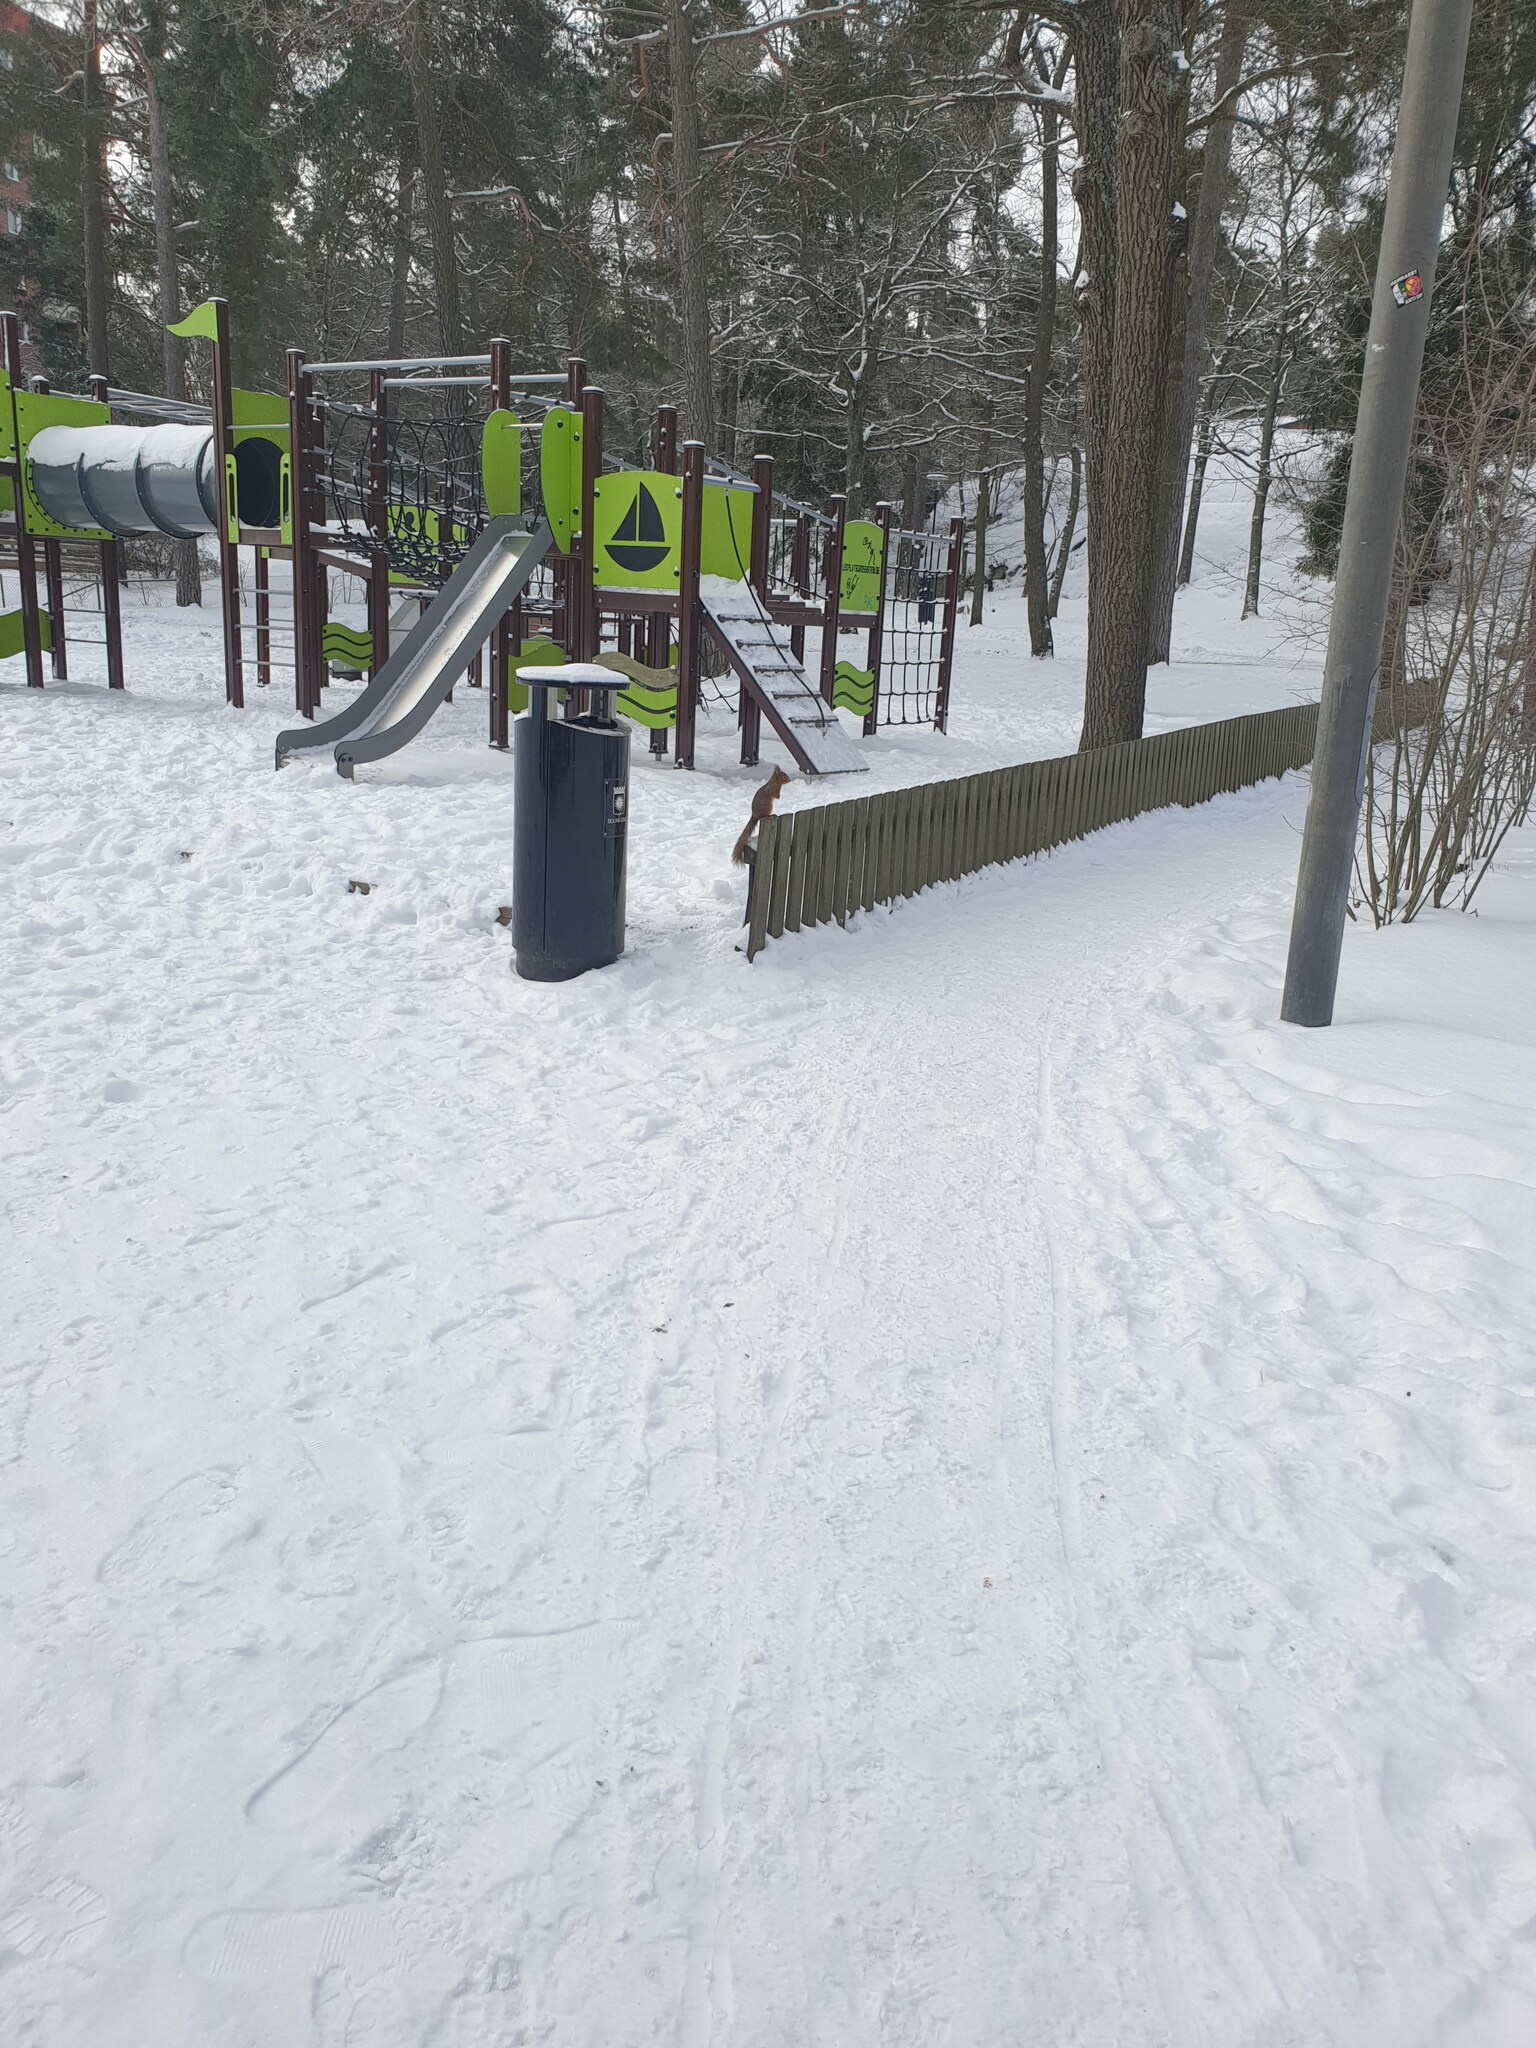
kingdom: Animalia
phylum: Chordata
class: Mammalia
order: Rodentia
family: Sciuridae
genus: Sciurus
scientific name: Sciurus vulgaris
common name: Eurasian red squirrel
